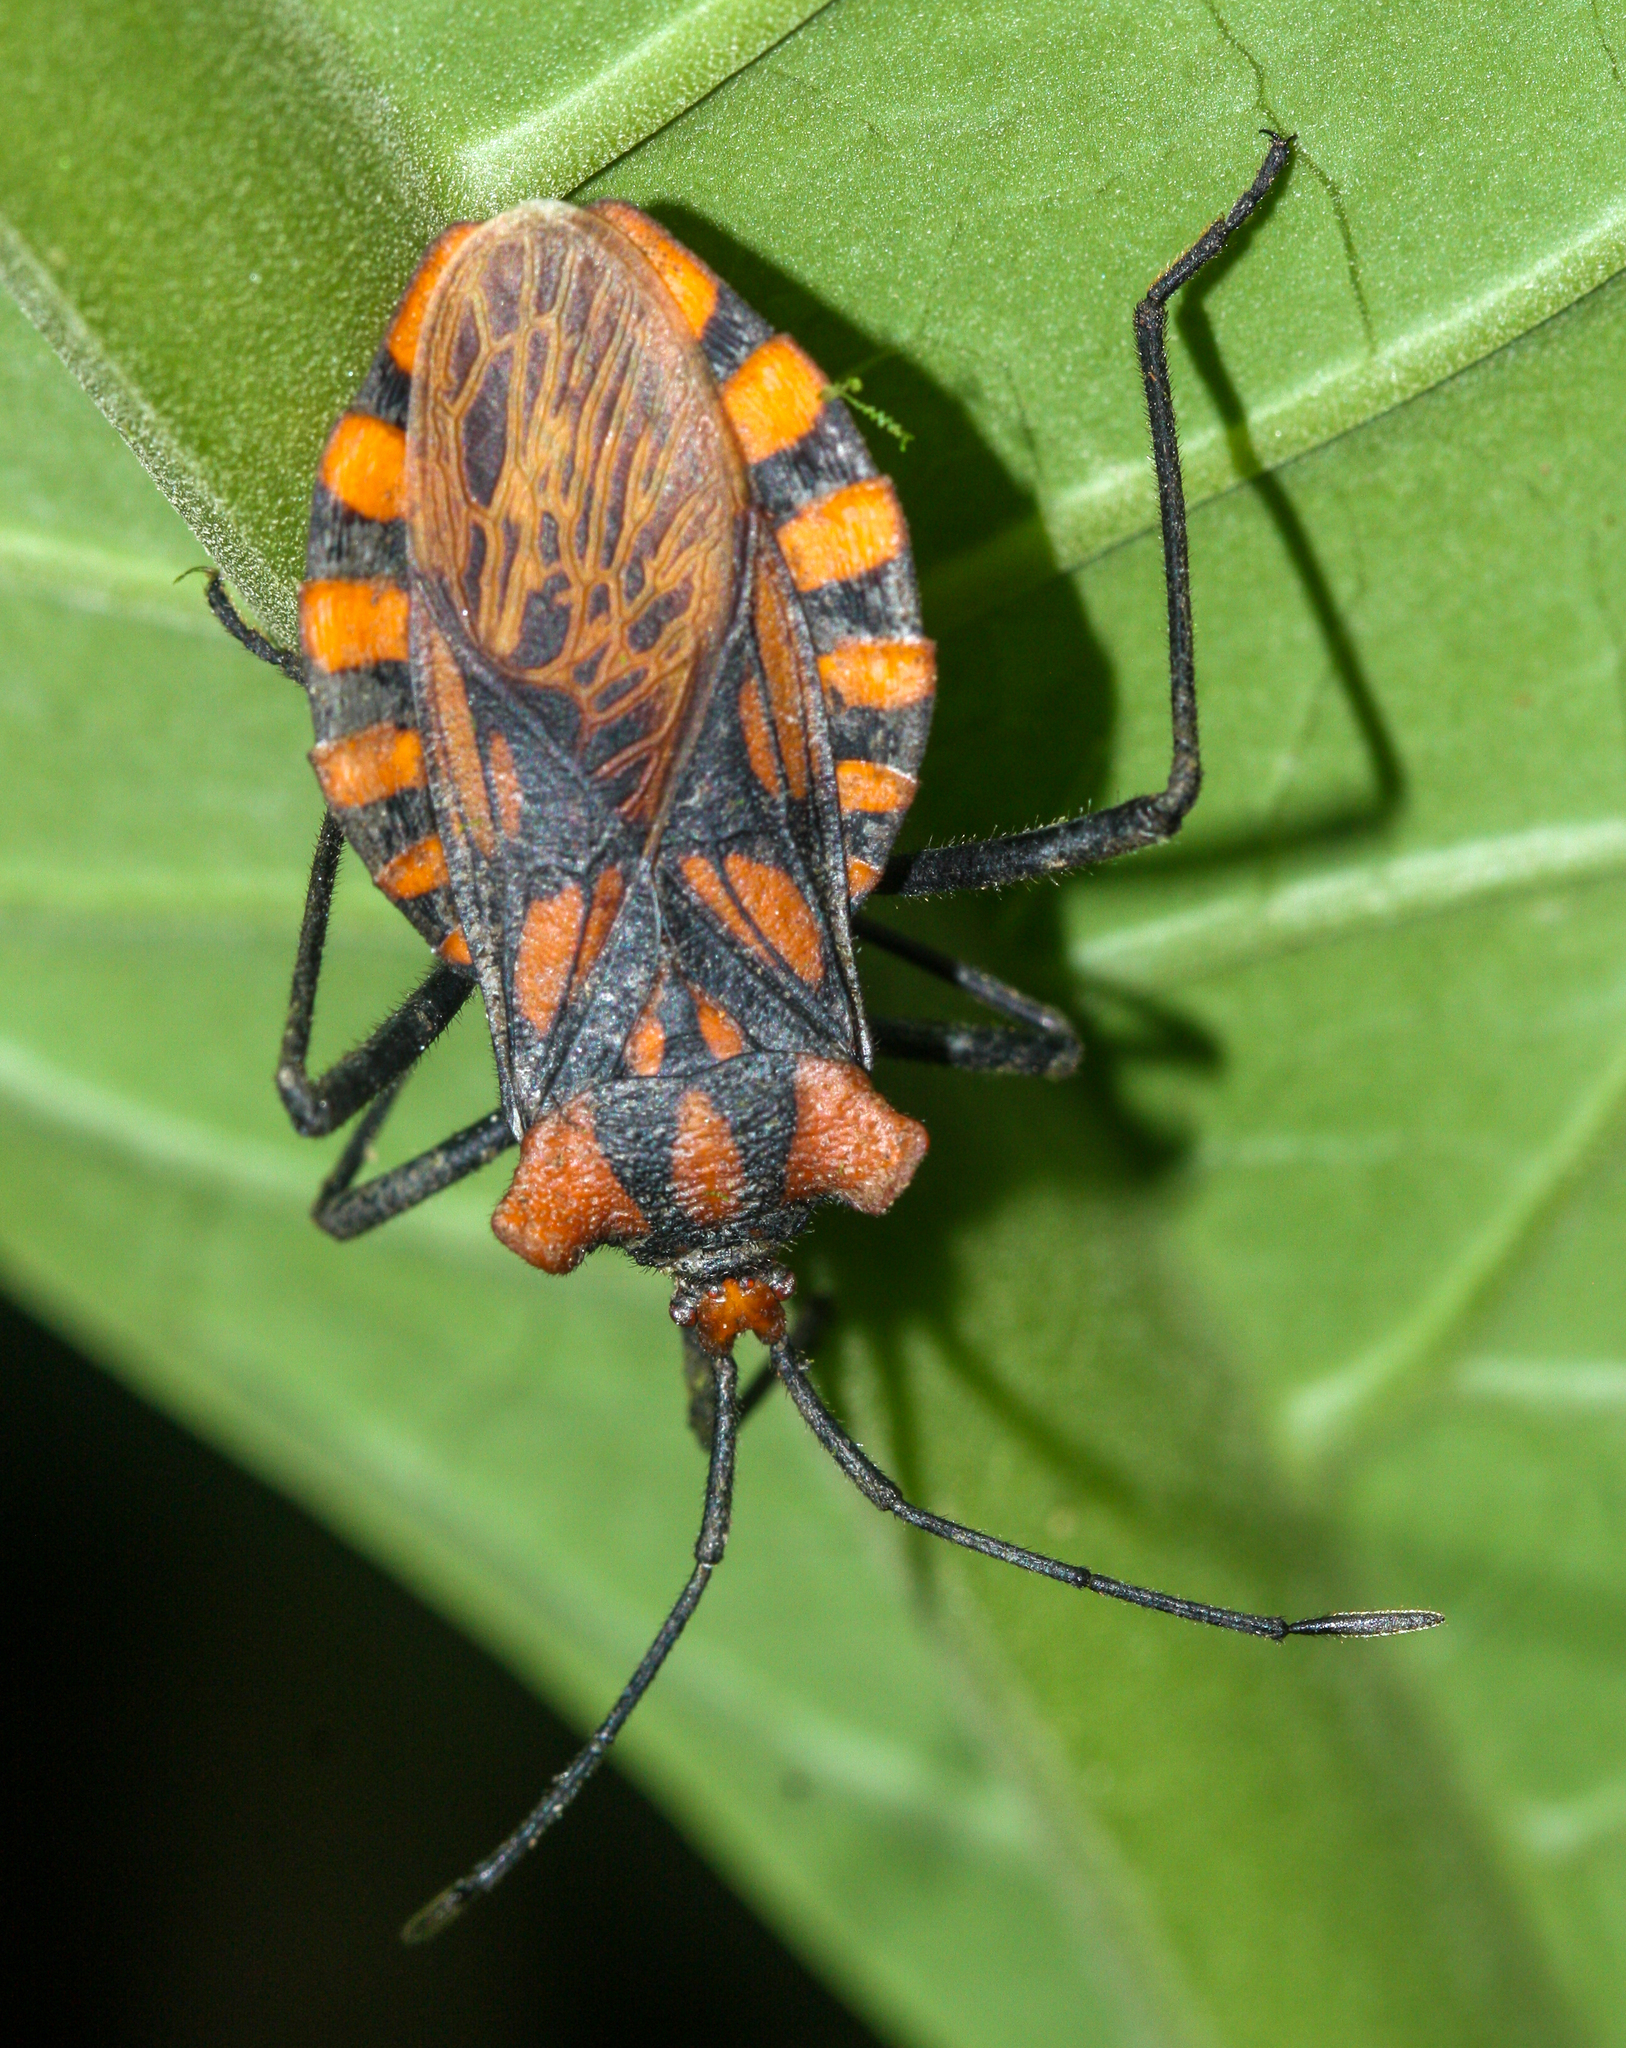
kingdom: Animalia
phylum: Arthropoda
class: Insecta
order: Hemiptera
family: Coreidae
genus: Spartocera
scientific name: Spartocera pantomima
